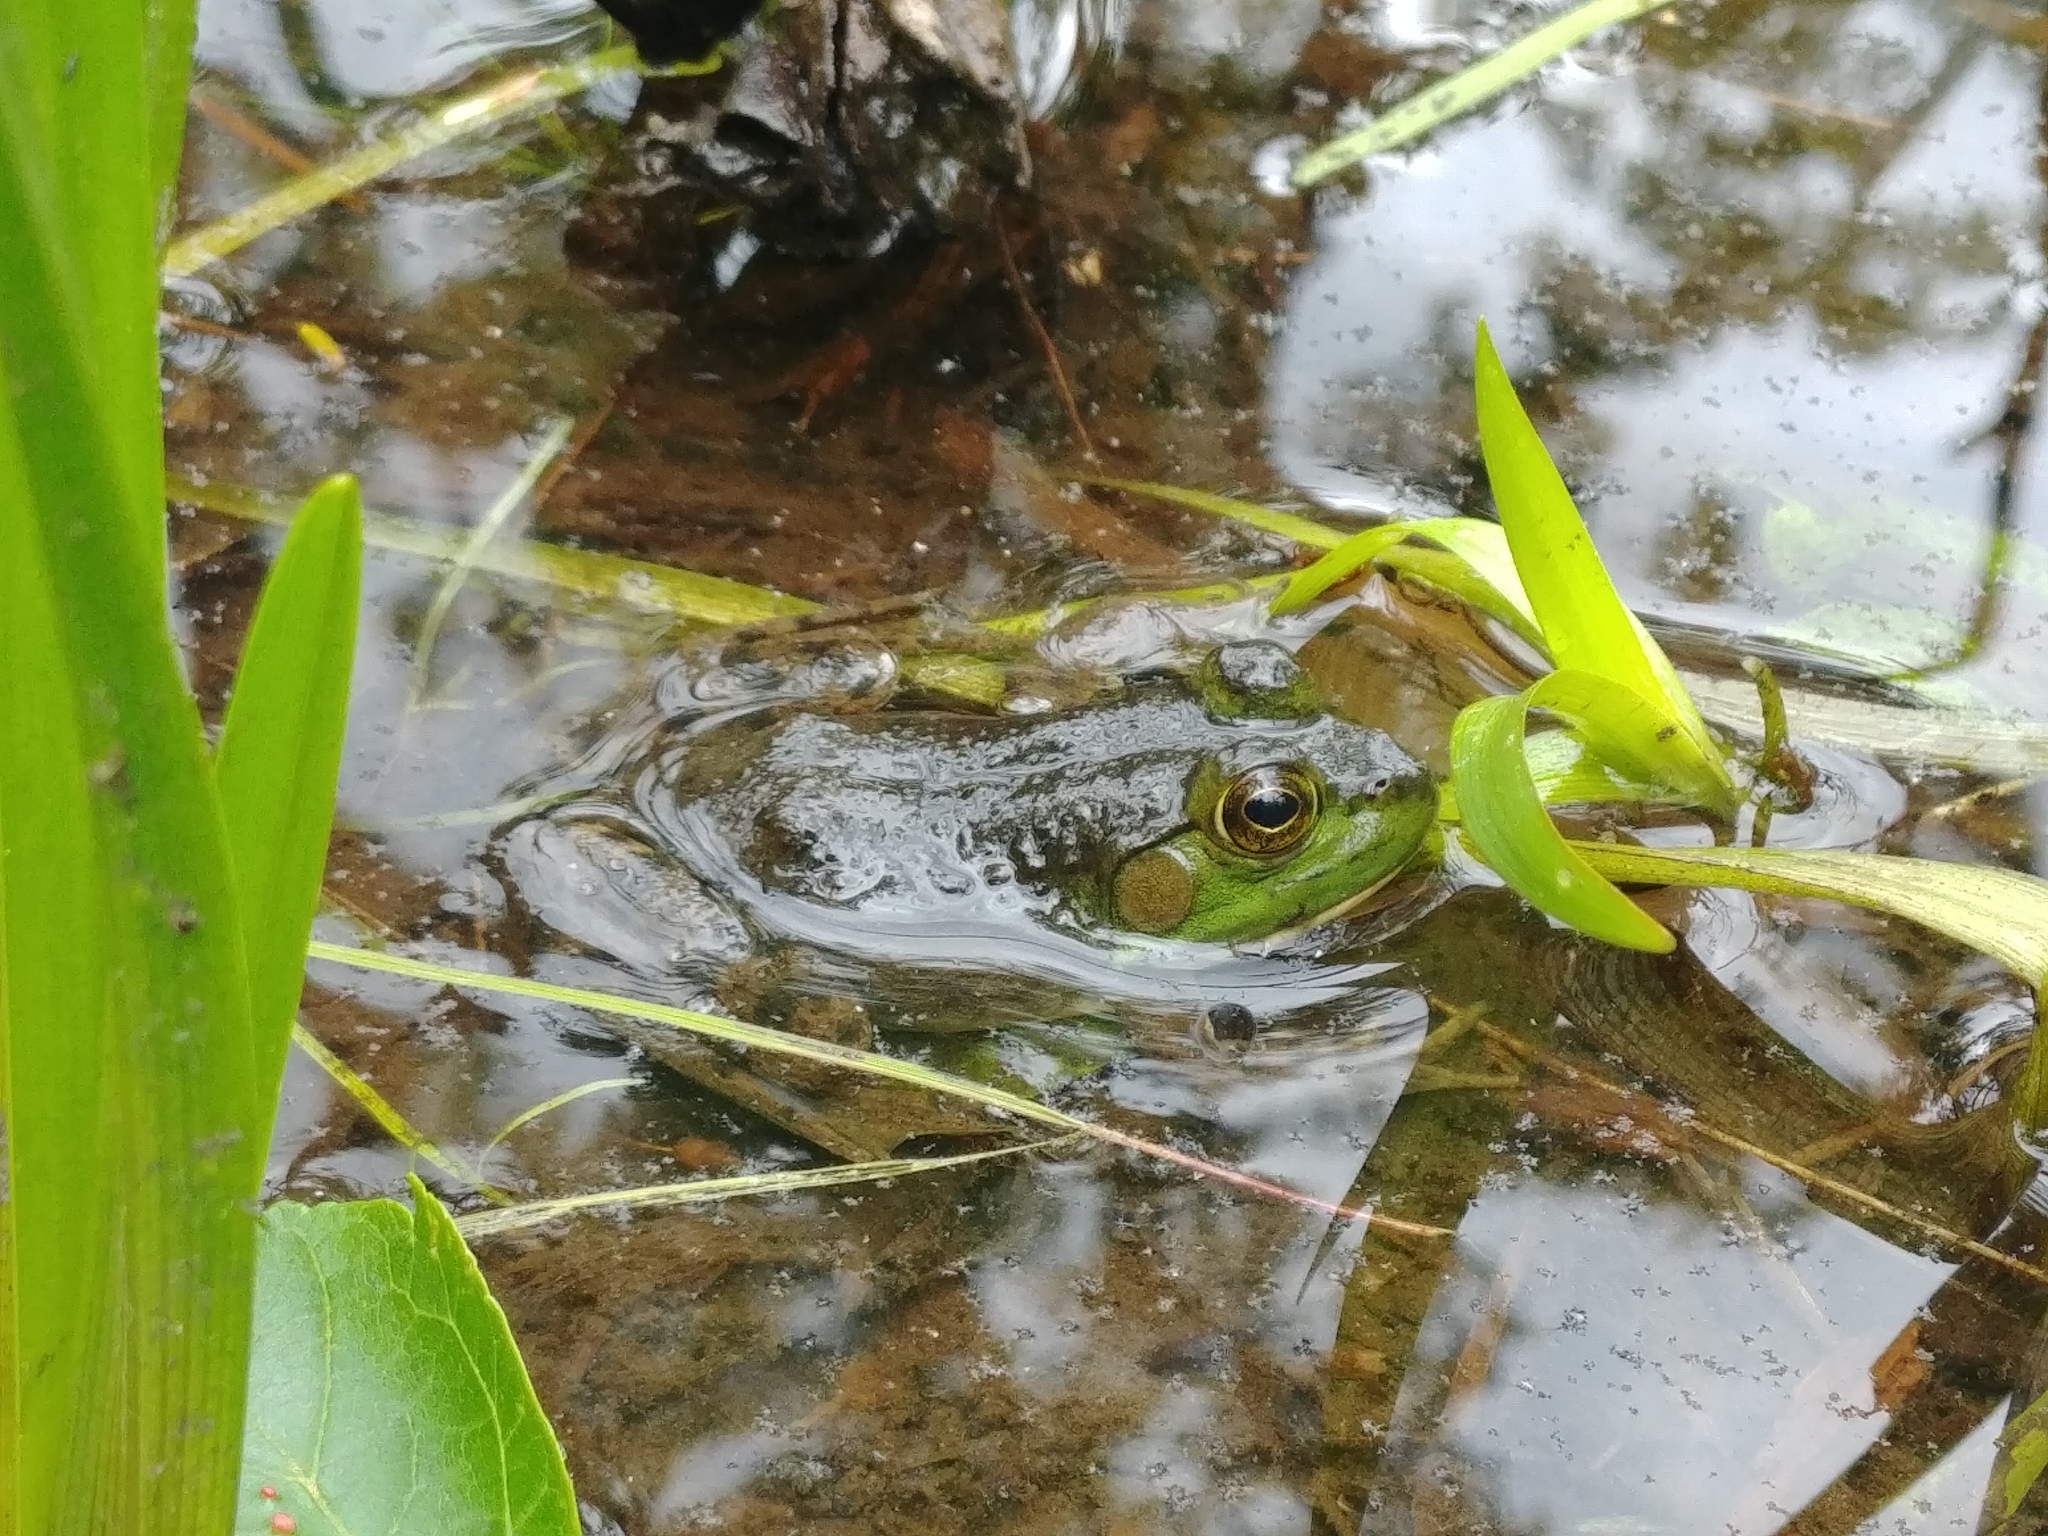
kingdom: Animalia
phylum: Chordata
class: Amphibia
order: Anura
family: Ranidae
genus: Lithobates
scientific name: Lithobates catesbeianus
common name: American bullfrog
